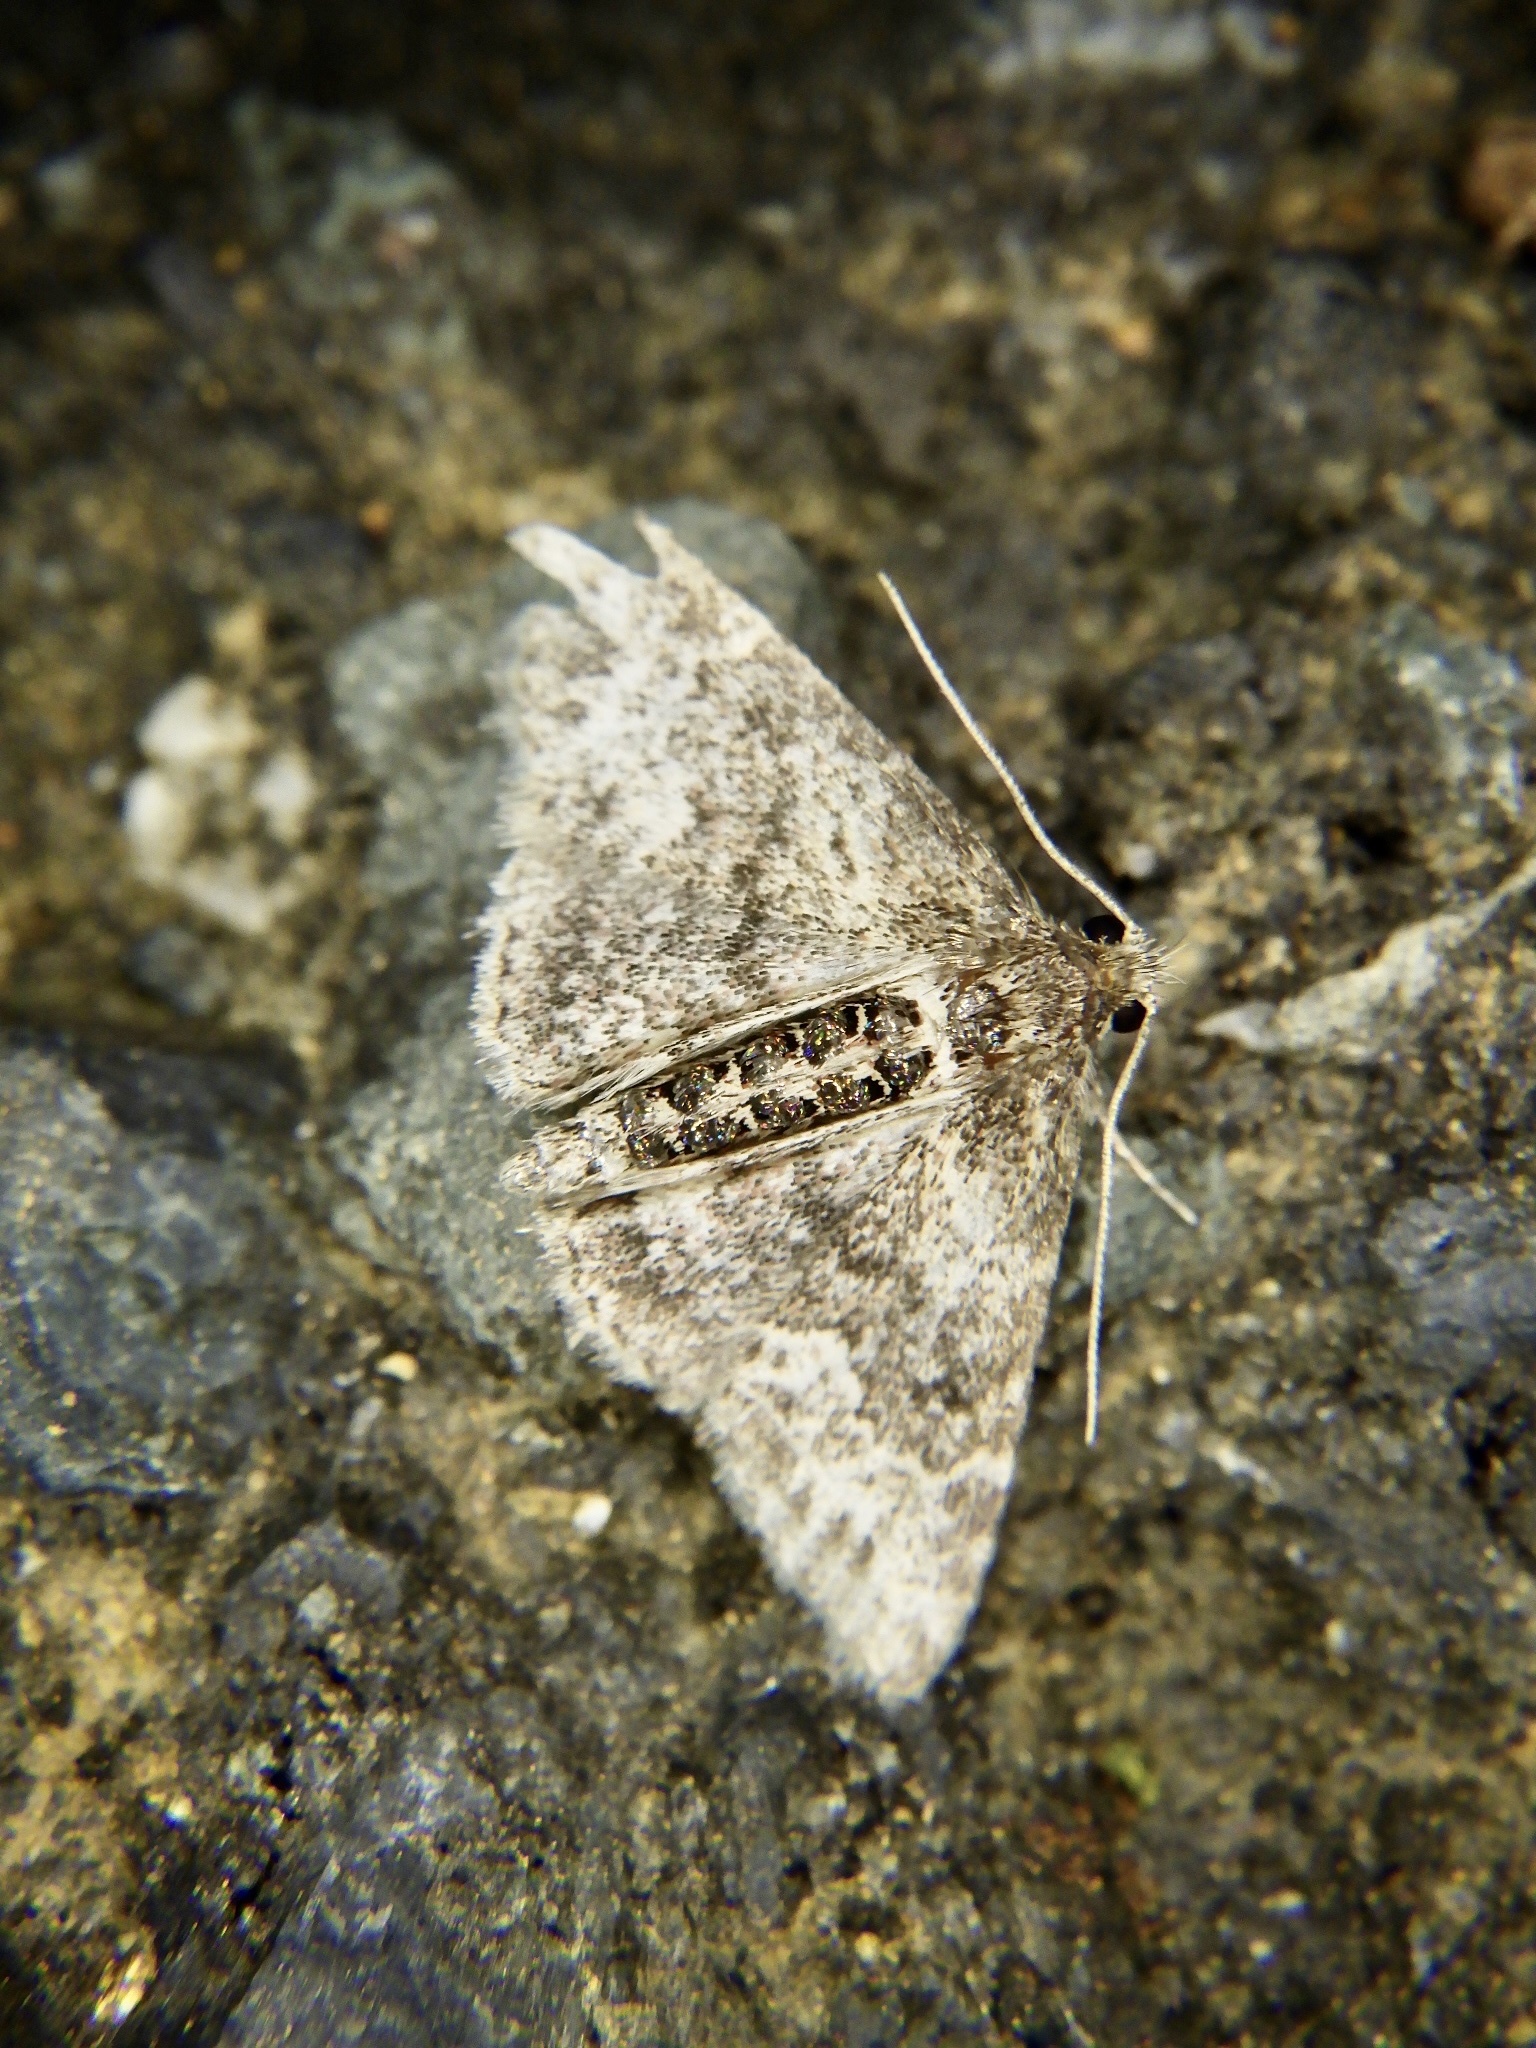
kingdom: Animalia
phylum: Arthropoda
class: Insecta
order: Lepidoptera
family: Erebidae
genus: Paragona
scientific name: Paragona inchoata
